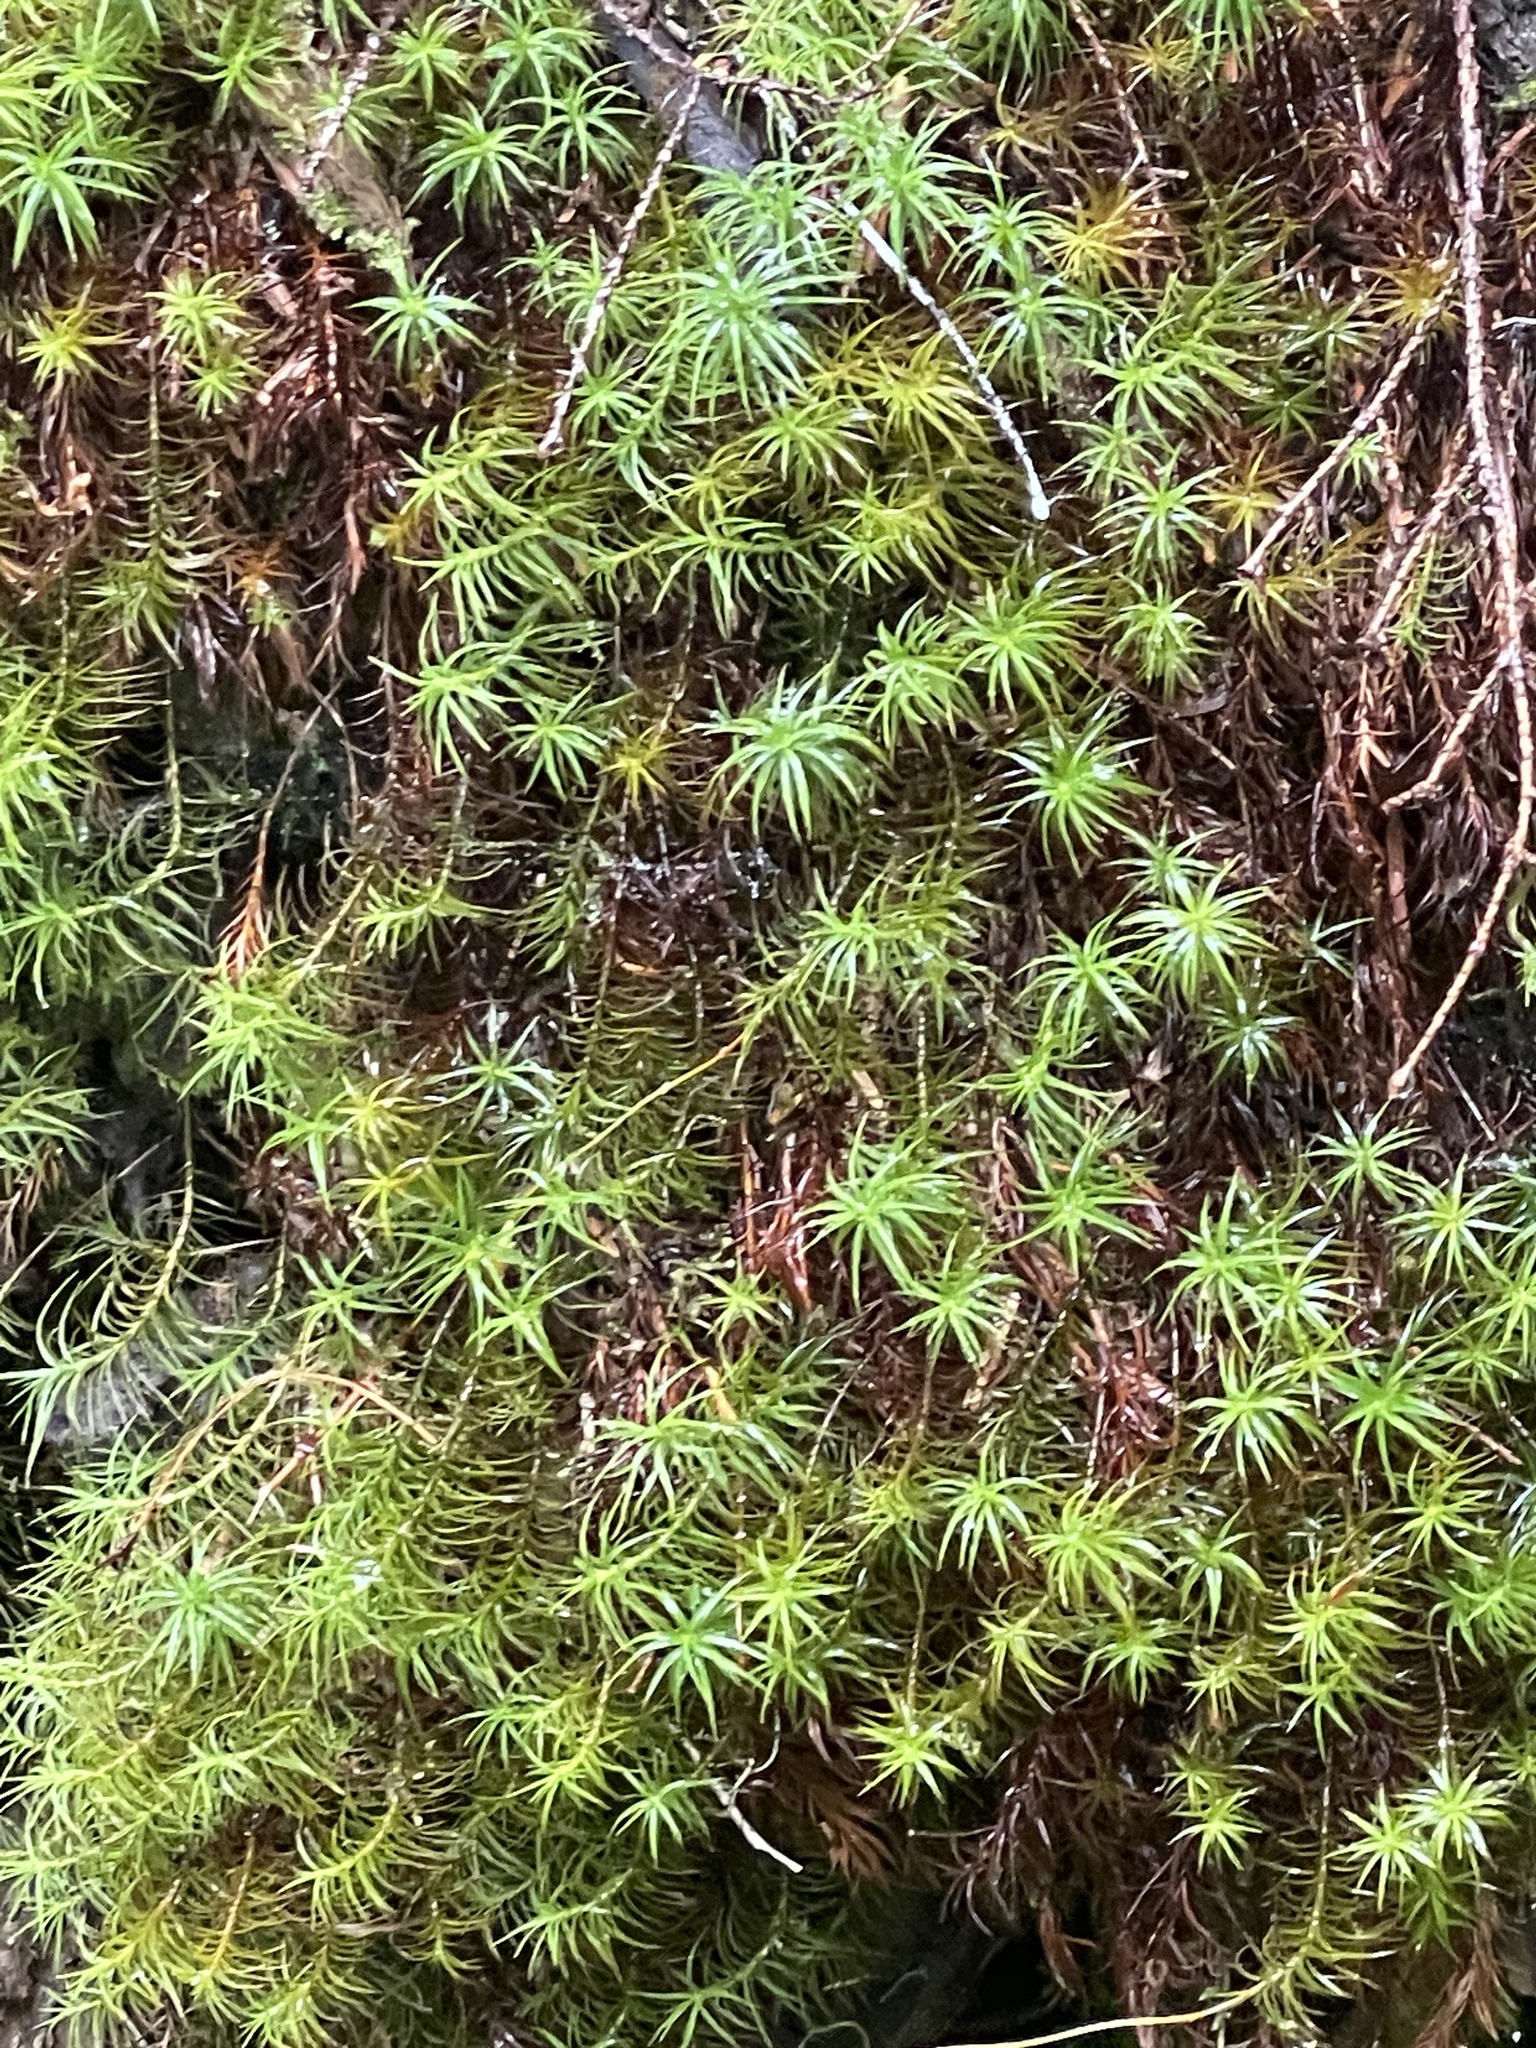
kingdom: Plantae
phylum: Bryophyta
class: Polytrichopsida
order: Polytrichales
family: Polytrichaceae
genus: Polytrichastrum
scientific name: Polytrichastrum alpinum
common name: Alpine haircap
